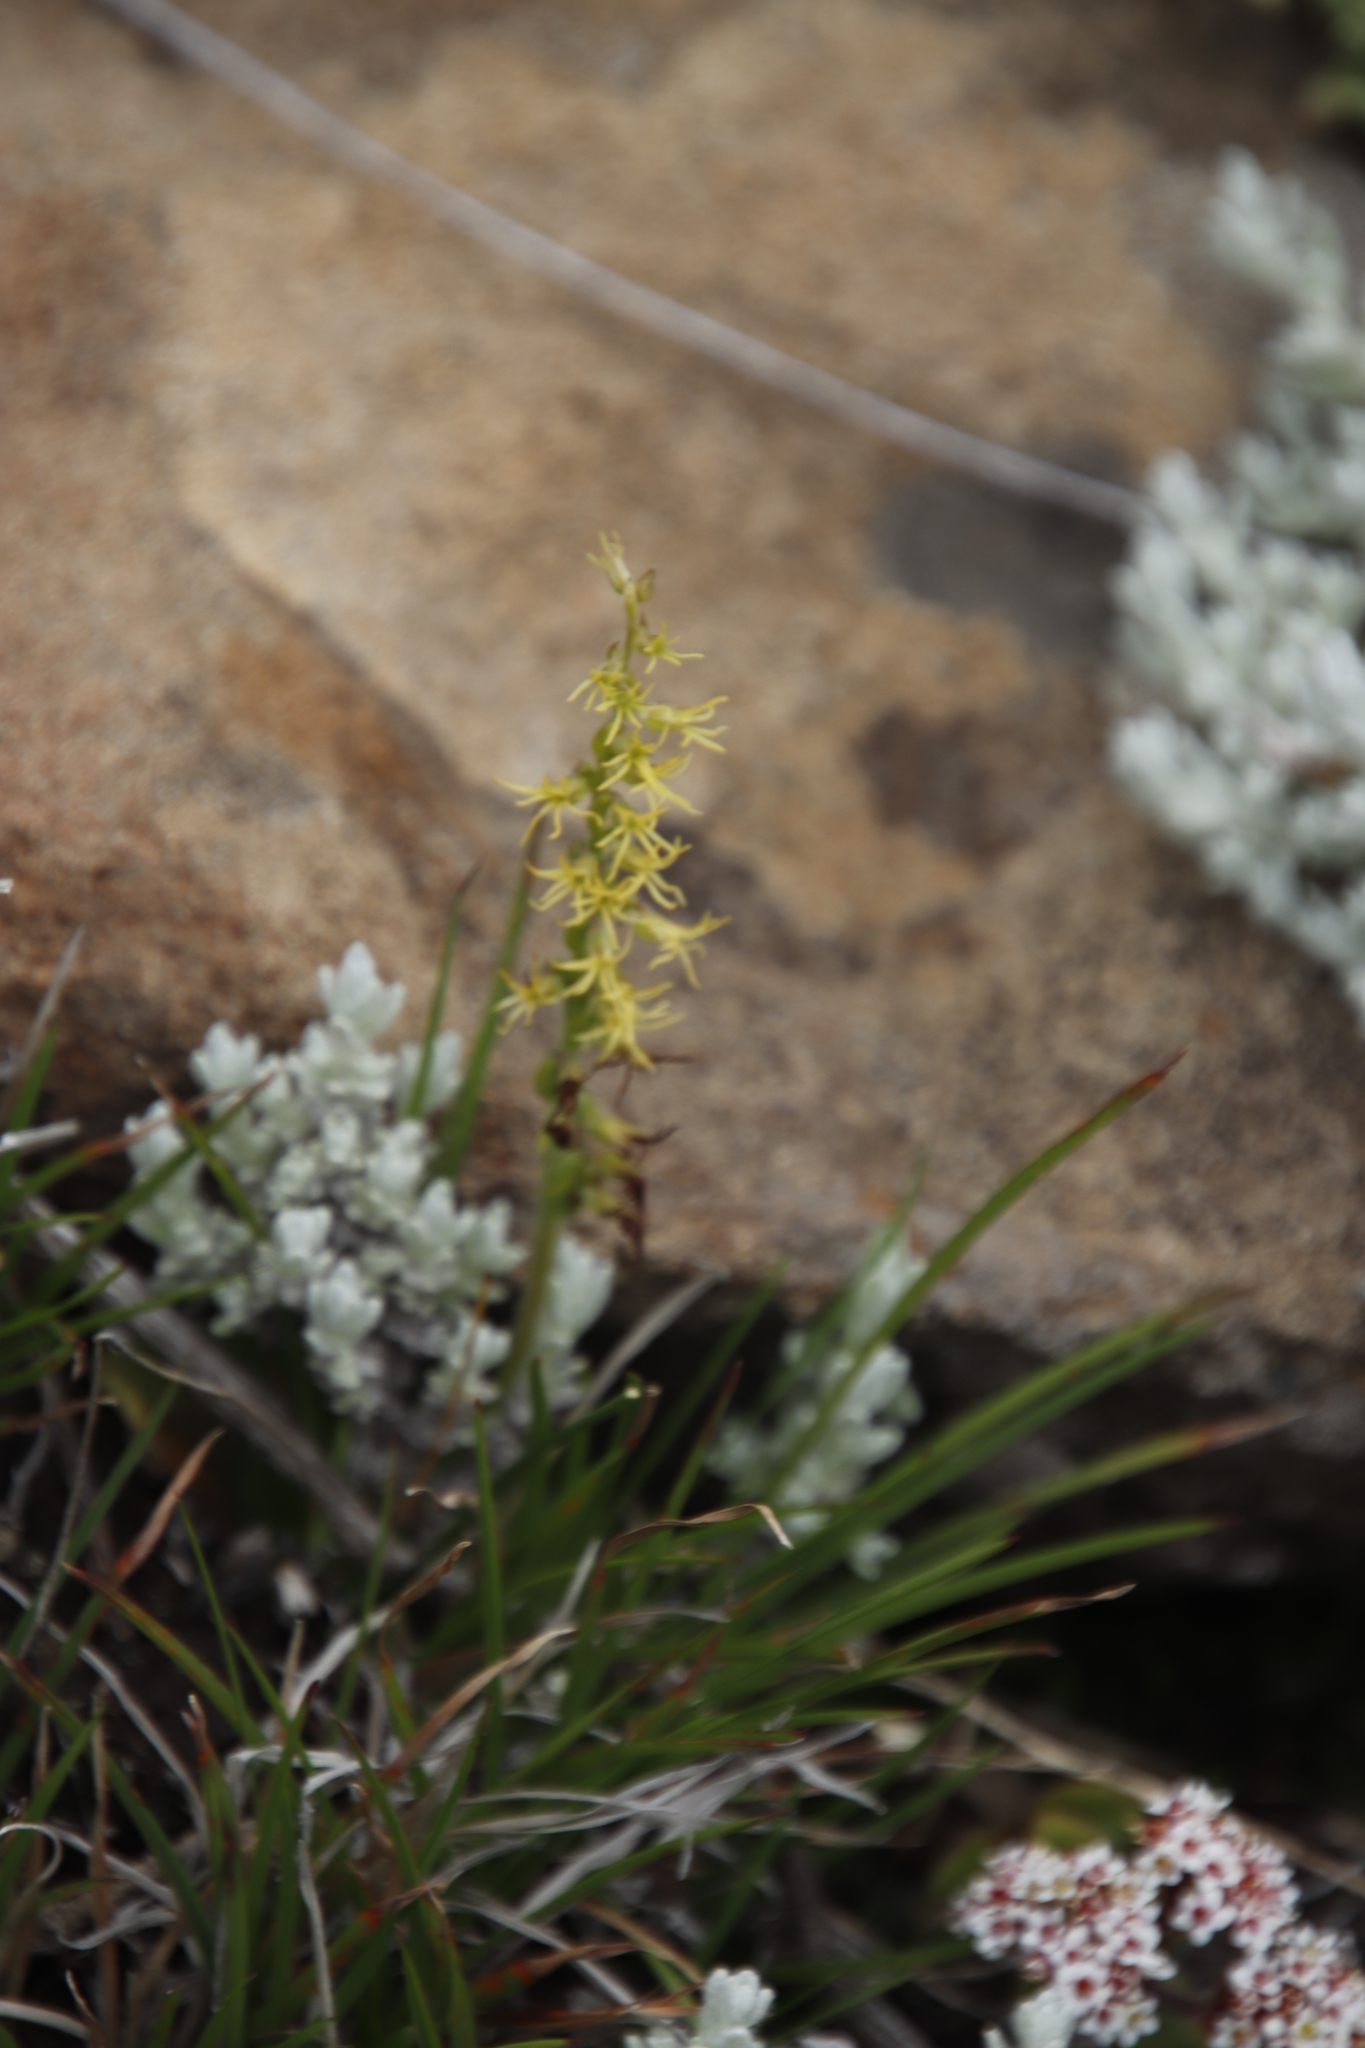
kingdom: Plantae
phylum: Tracheophyta
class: Liliopsida
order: Asparagales
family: Orchidaceae
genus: Holothrix
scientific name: Holothrix incurva
